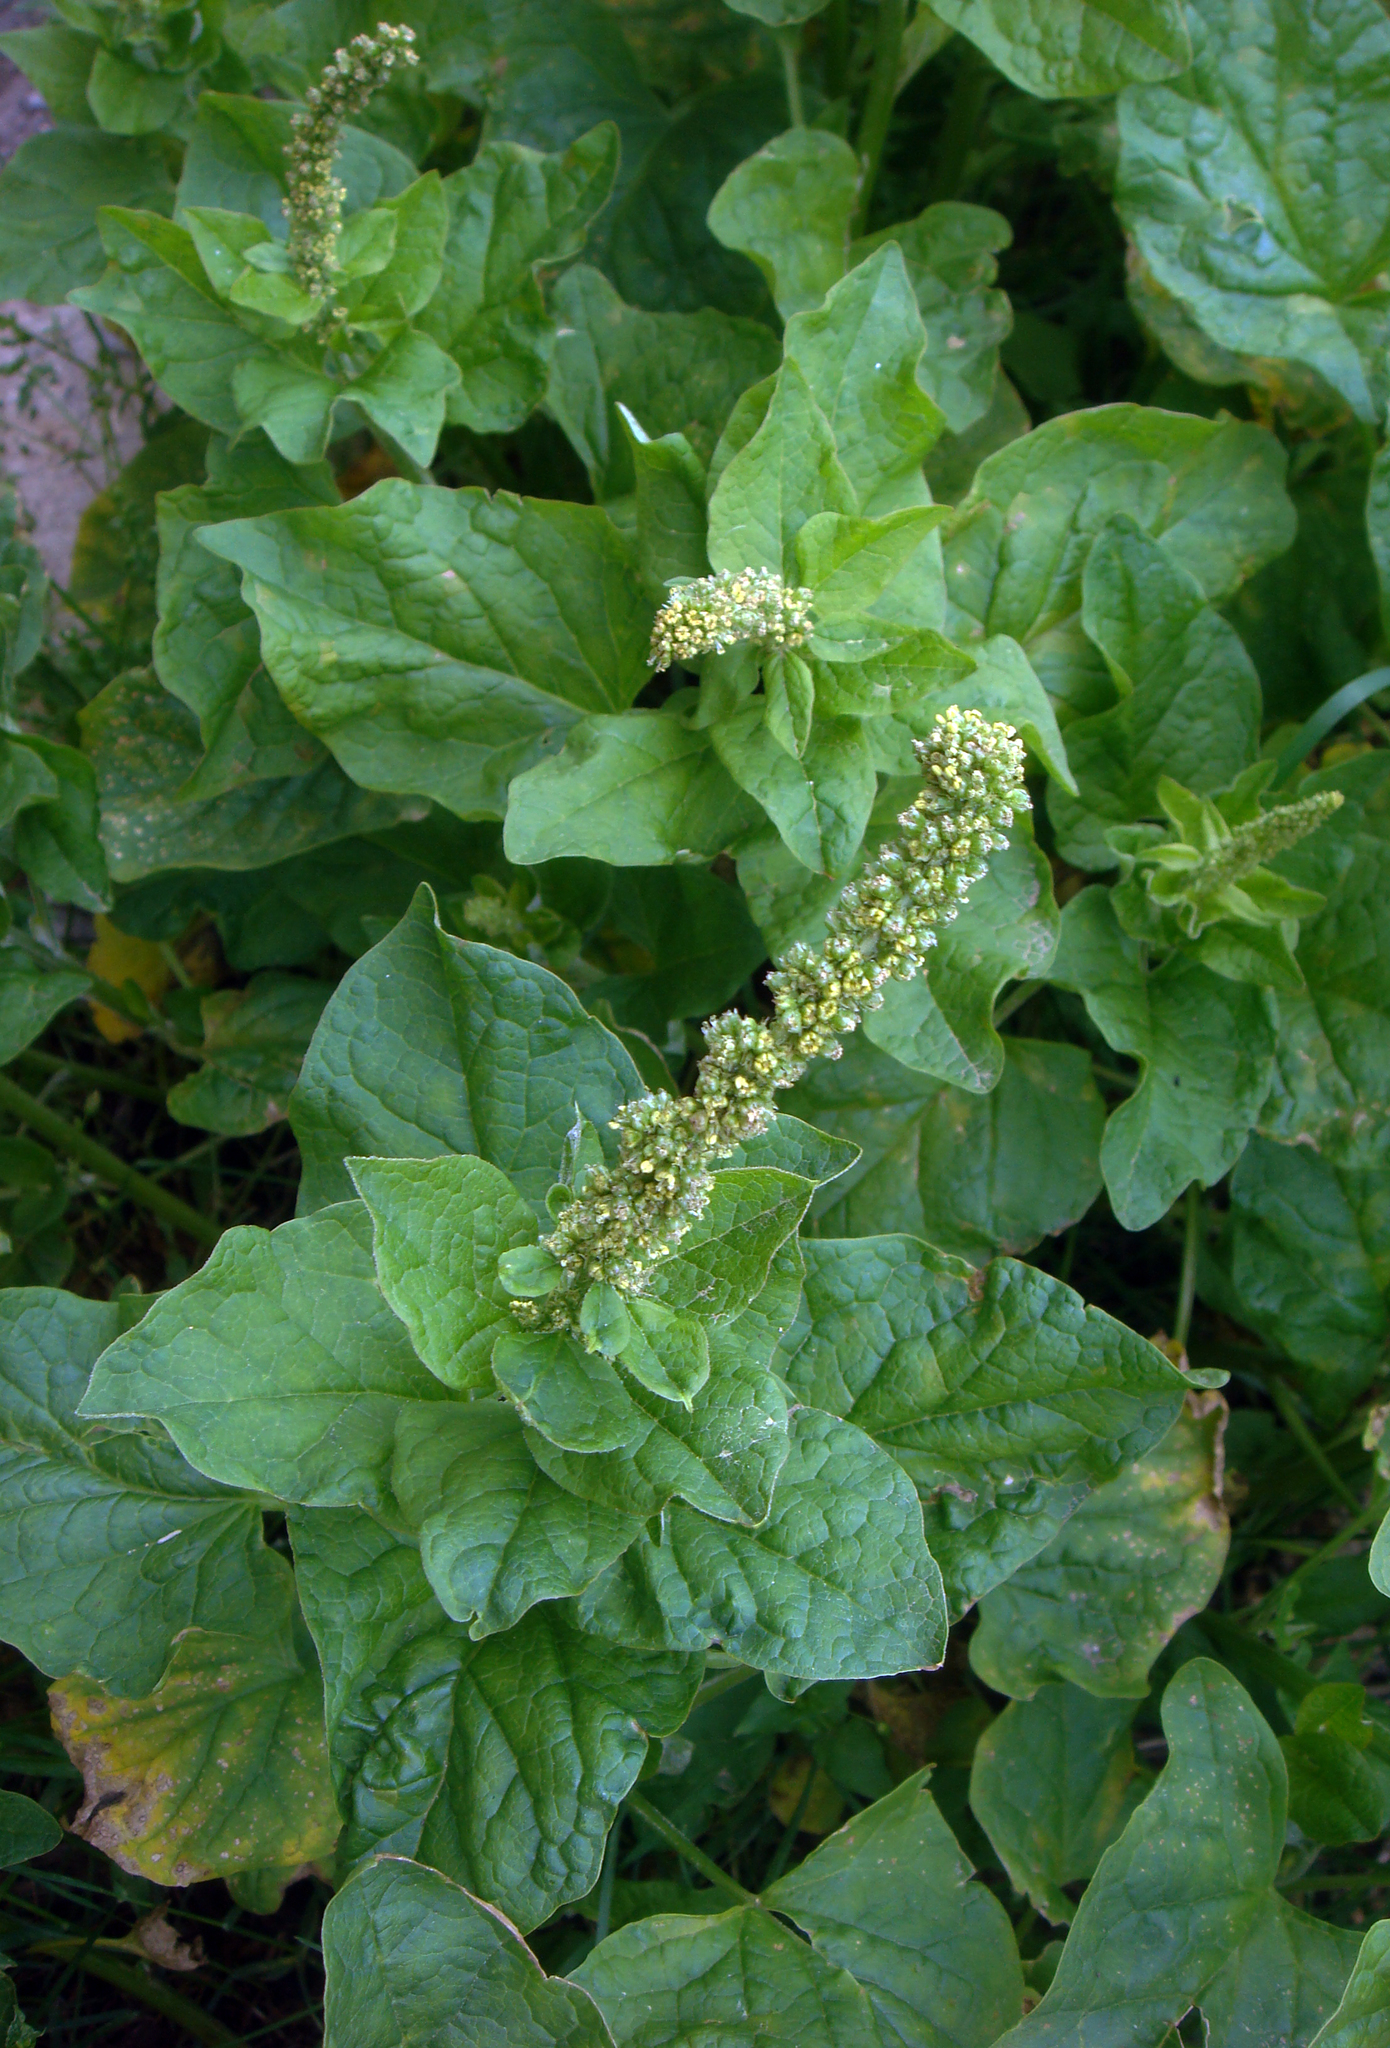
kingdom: Plantae
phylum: Tracheophyta
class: Magnoliopsida
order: Caryophyllales
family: Amaranthaceae
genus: Blitum
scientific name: Blitum bonus-henricus
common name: Good king henry
